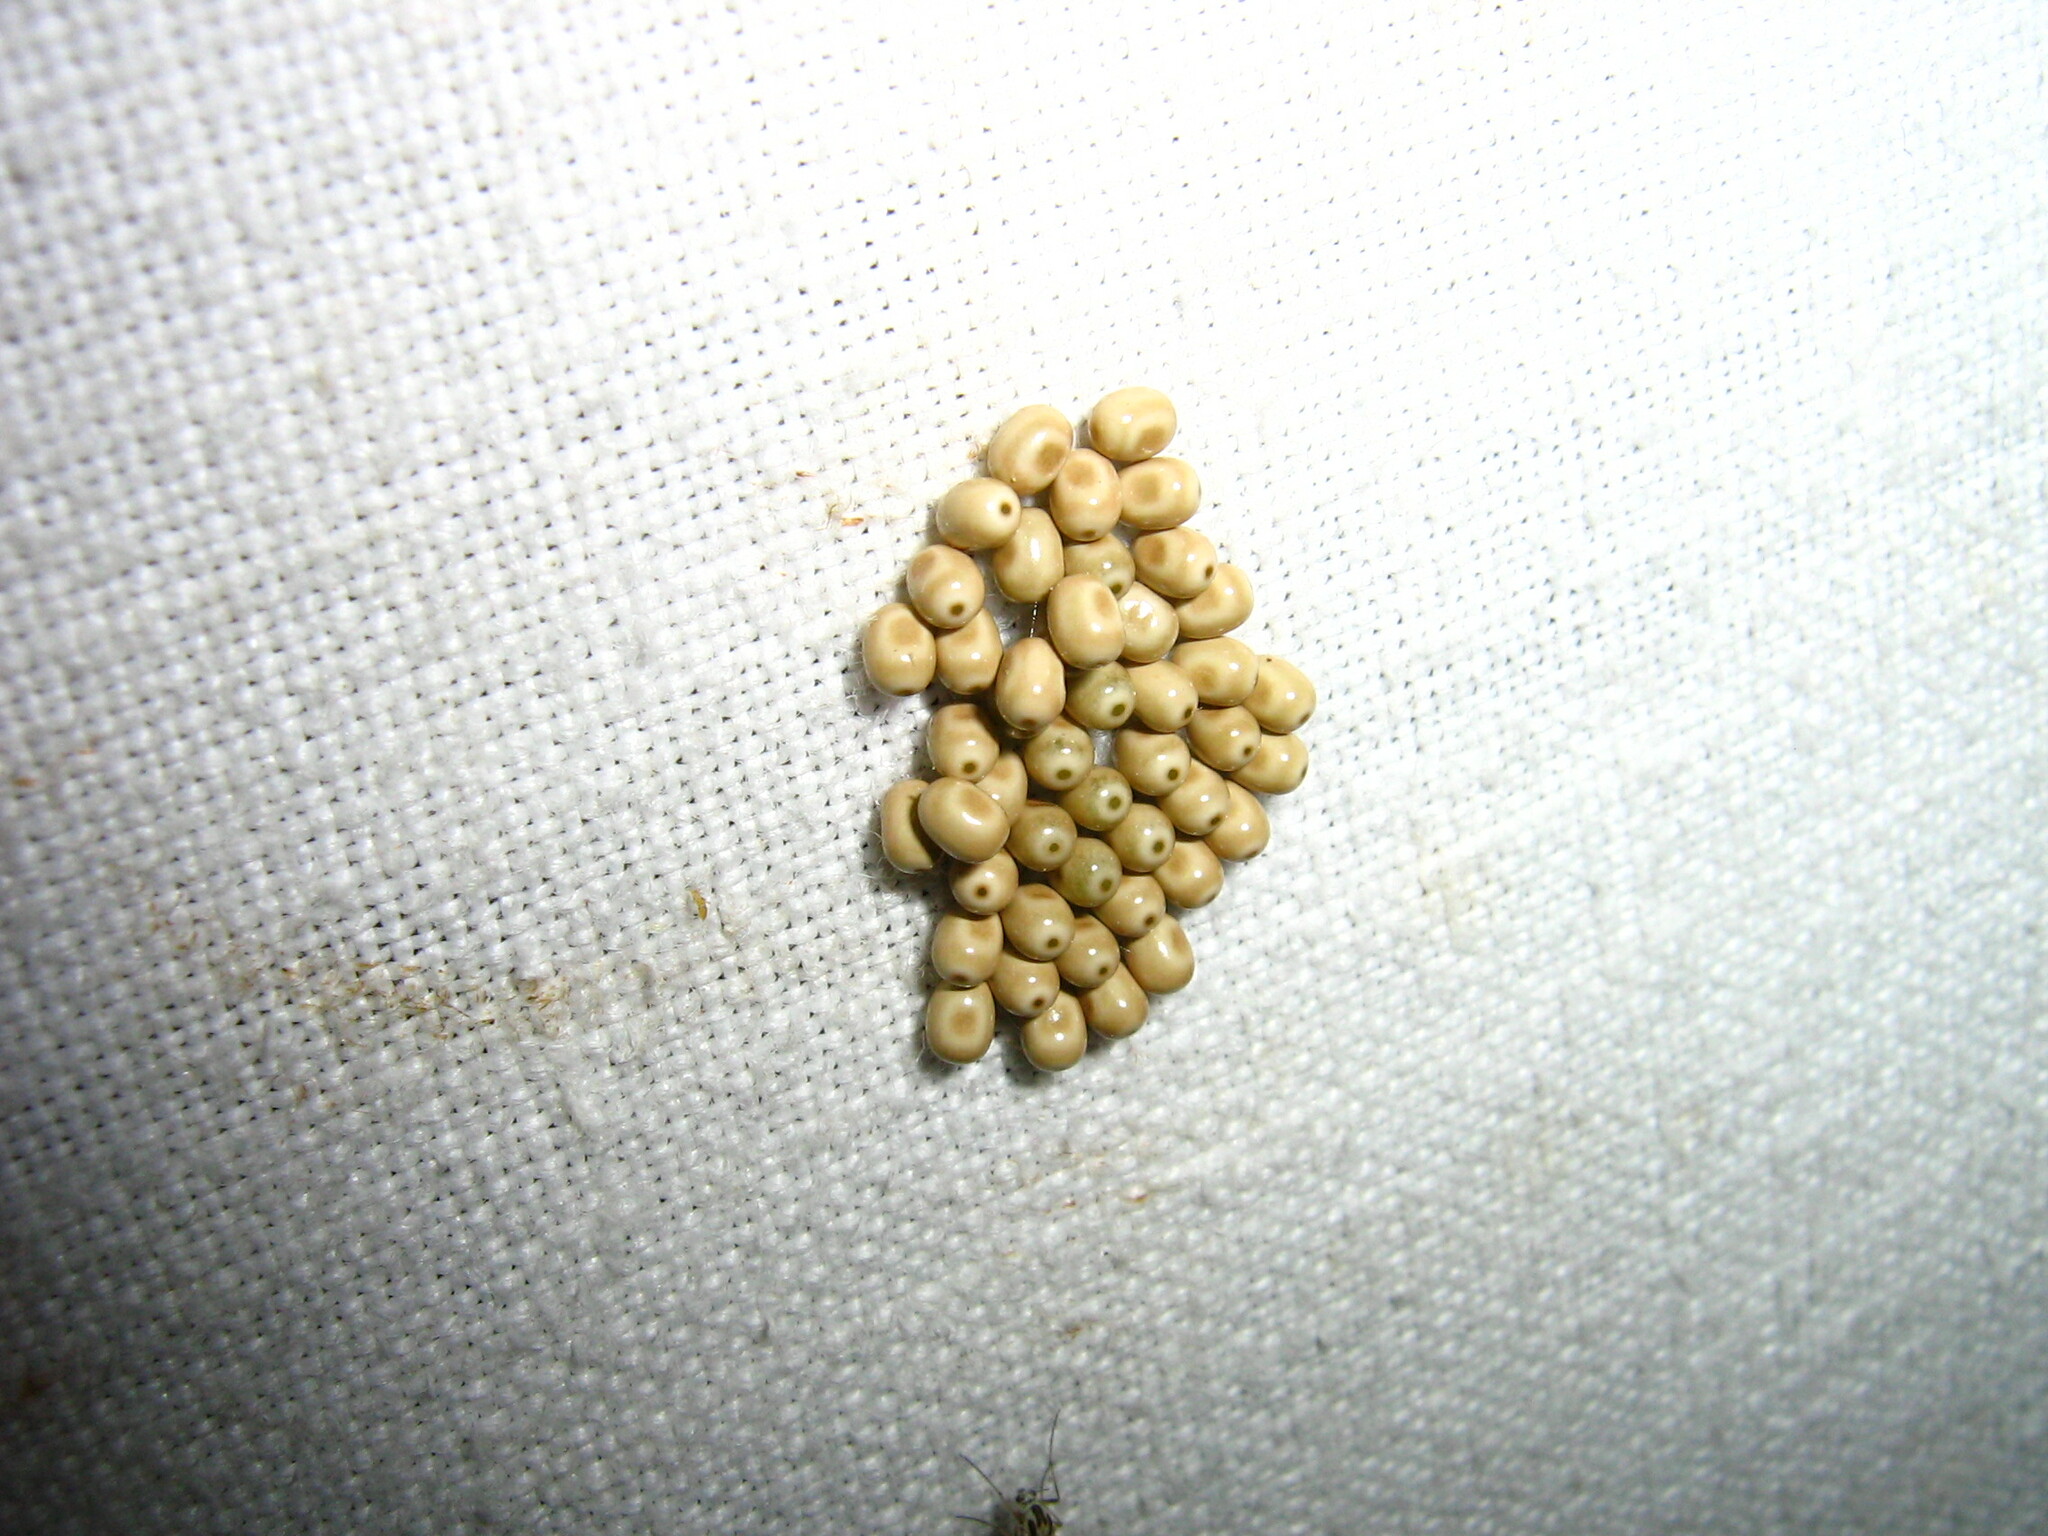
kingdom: Animalia
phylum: Arthropoda
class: Insecta
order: Lepidoptera
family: Lasiocampidae
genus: Macrothylacia
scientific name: Macrothylacia rubi
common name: Fox moth
